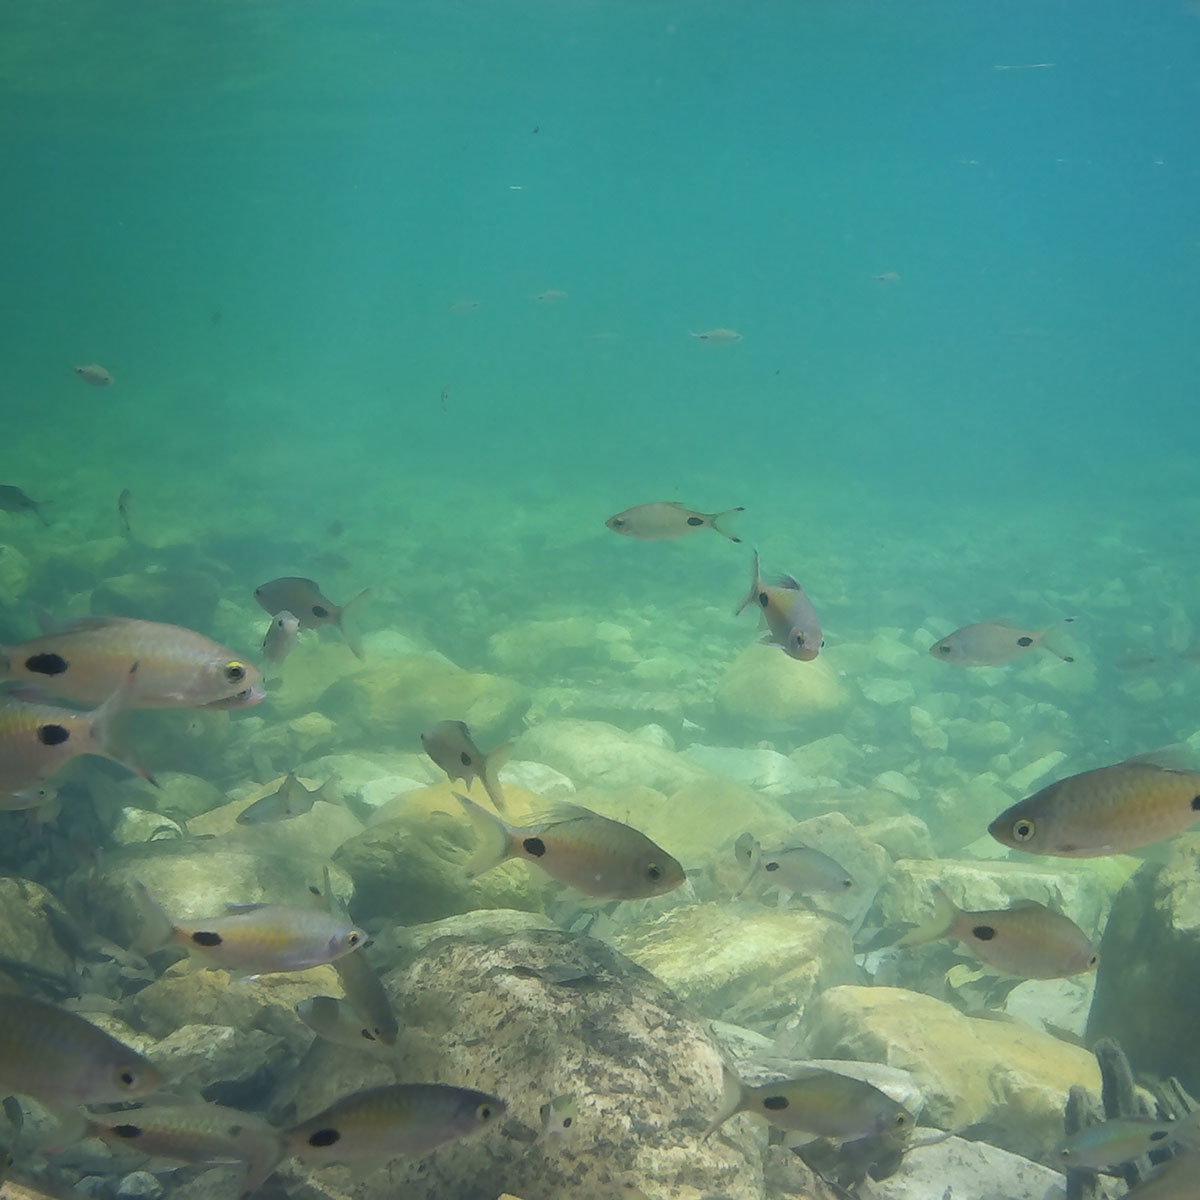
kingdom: Animalia
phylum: Chordata
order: Cypriniformes
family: Cyprinidae
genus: Dawkinsia
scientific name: Dawkinsia filamentosa
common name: Filament barb
